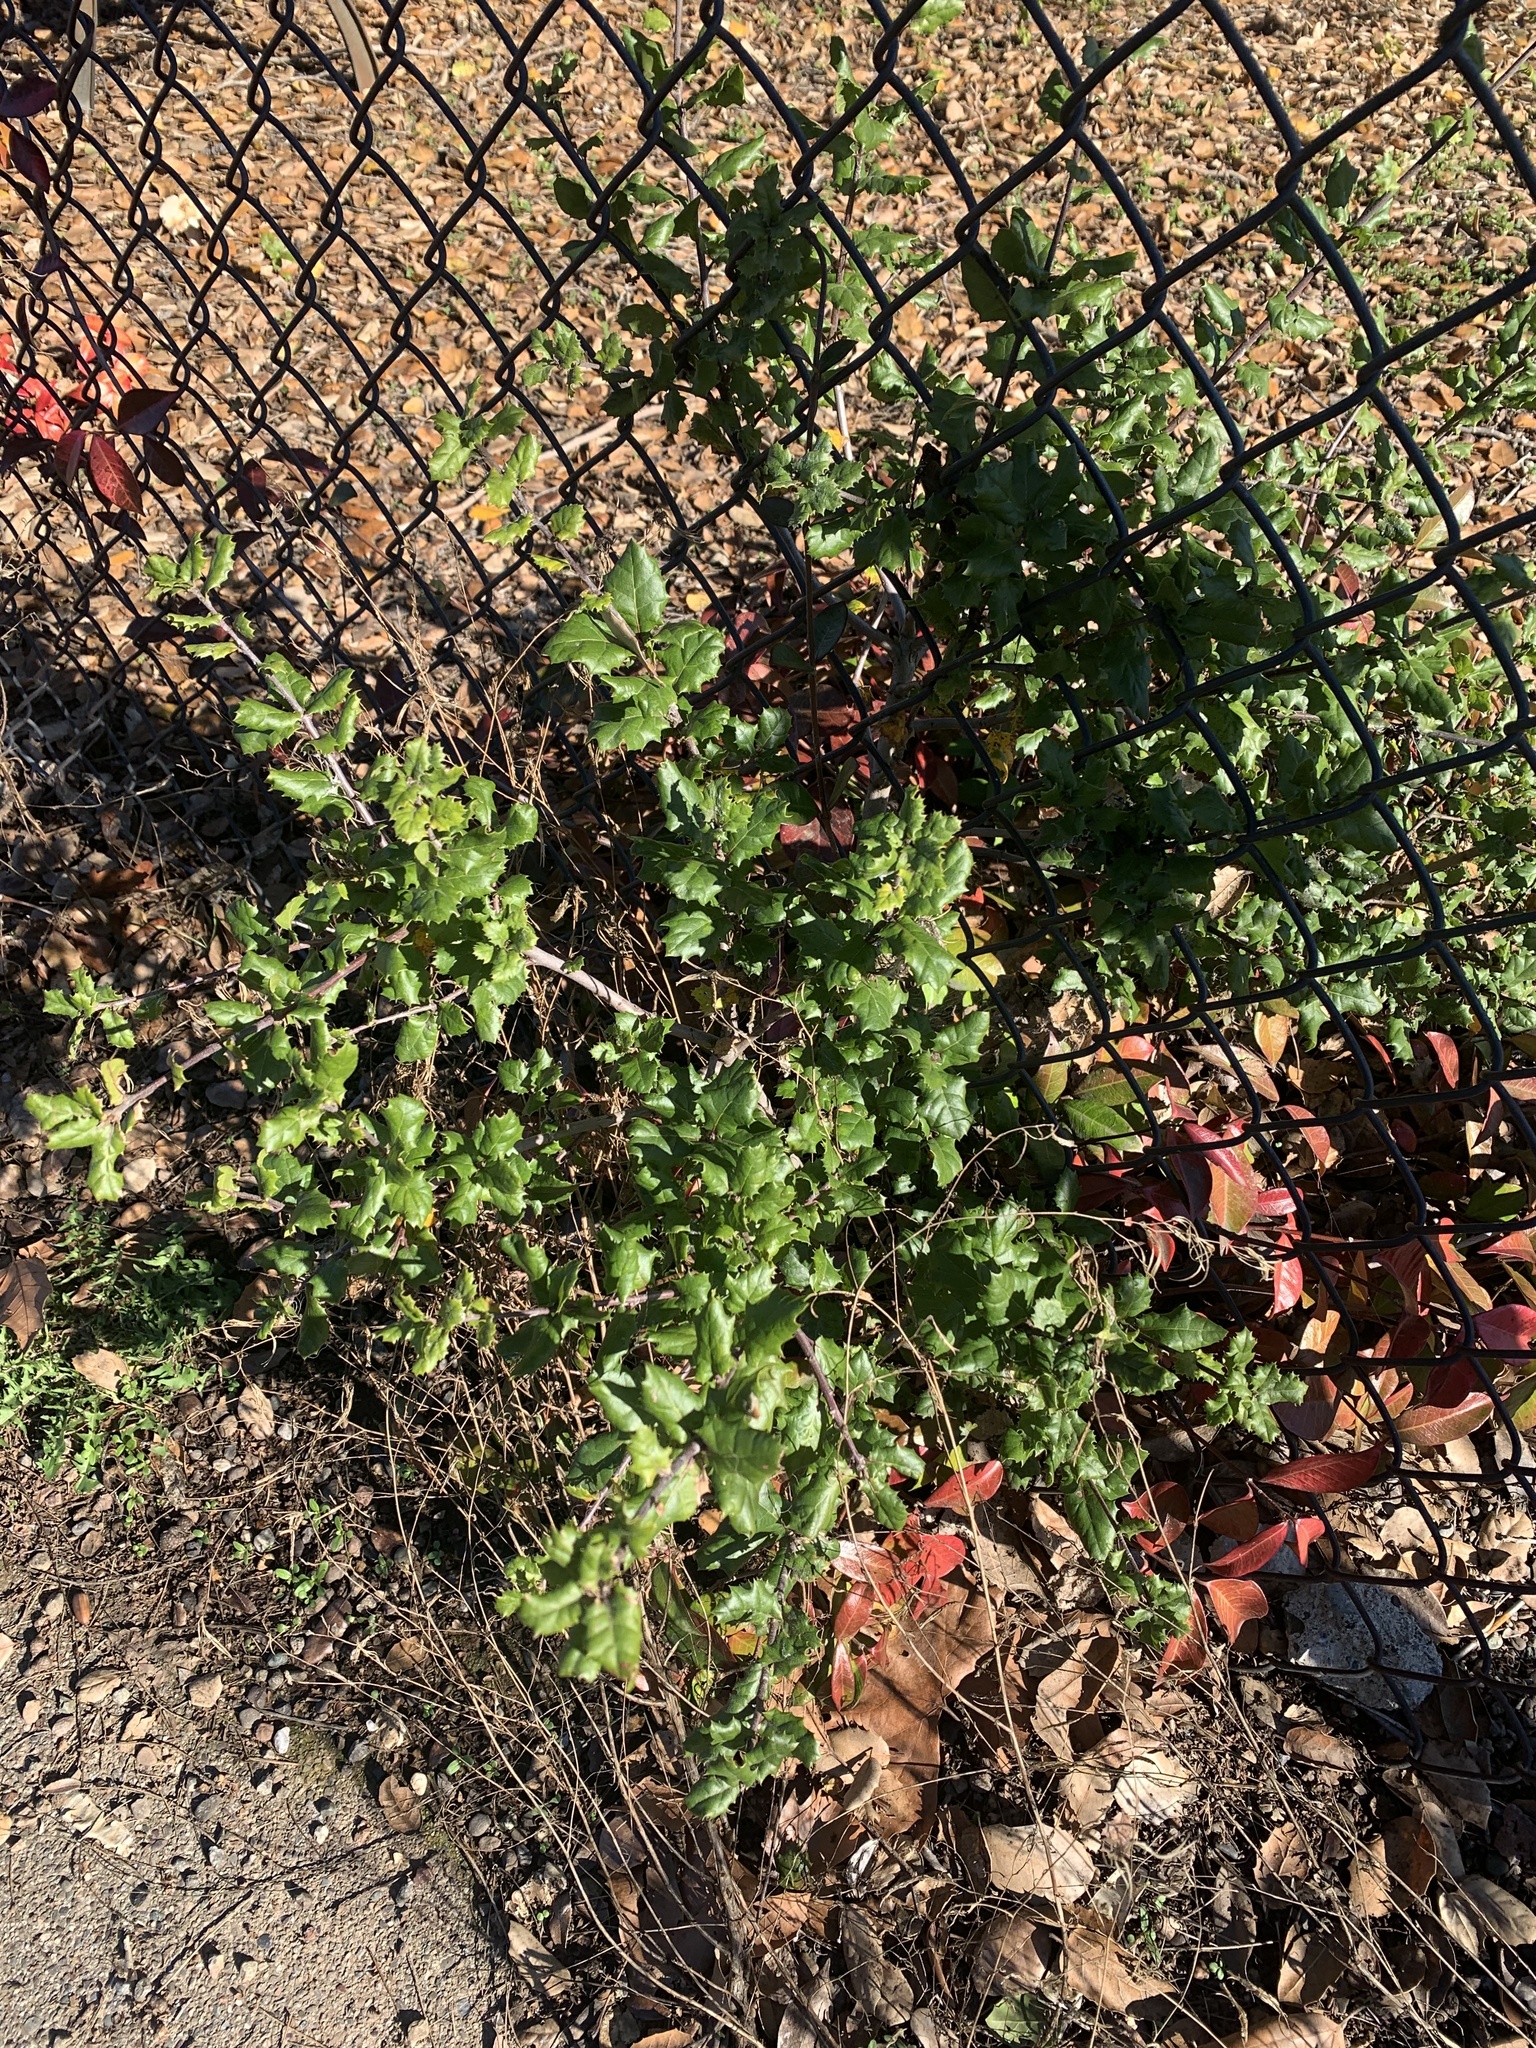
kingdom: Plantae
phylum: Tracheophyta
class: Magnoliopsida
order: Fagales
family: Fagaceae
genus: Quercus
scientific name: Quercus agrifolia
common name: California live oak
